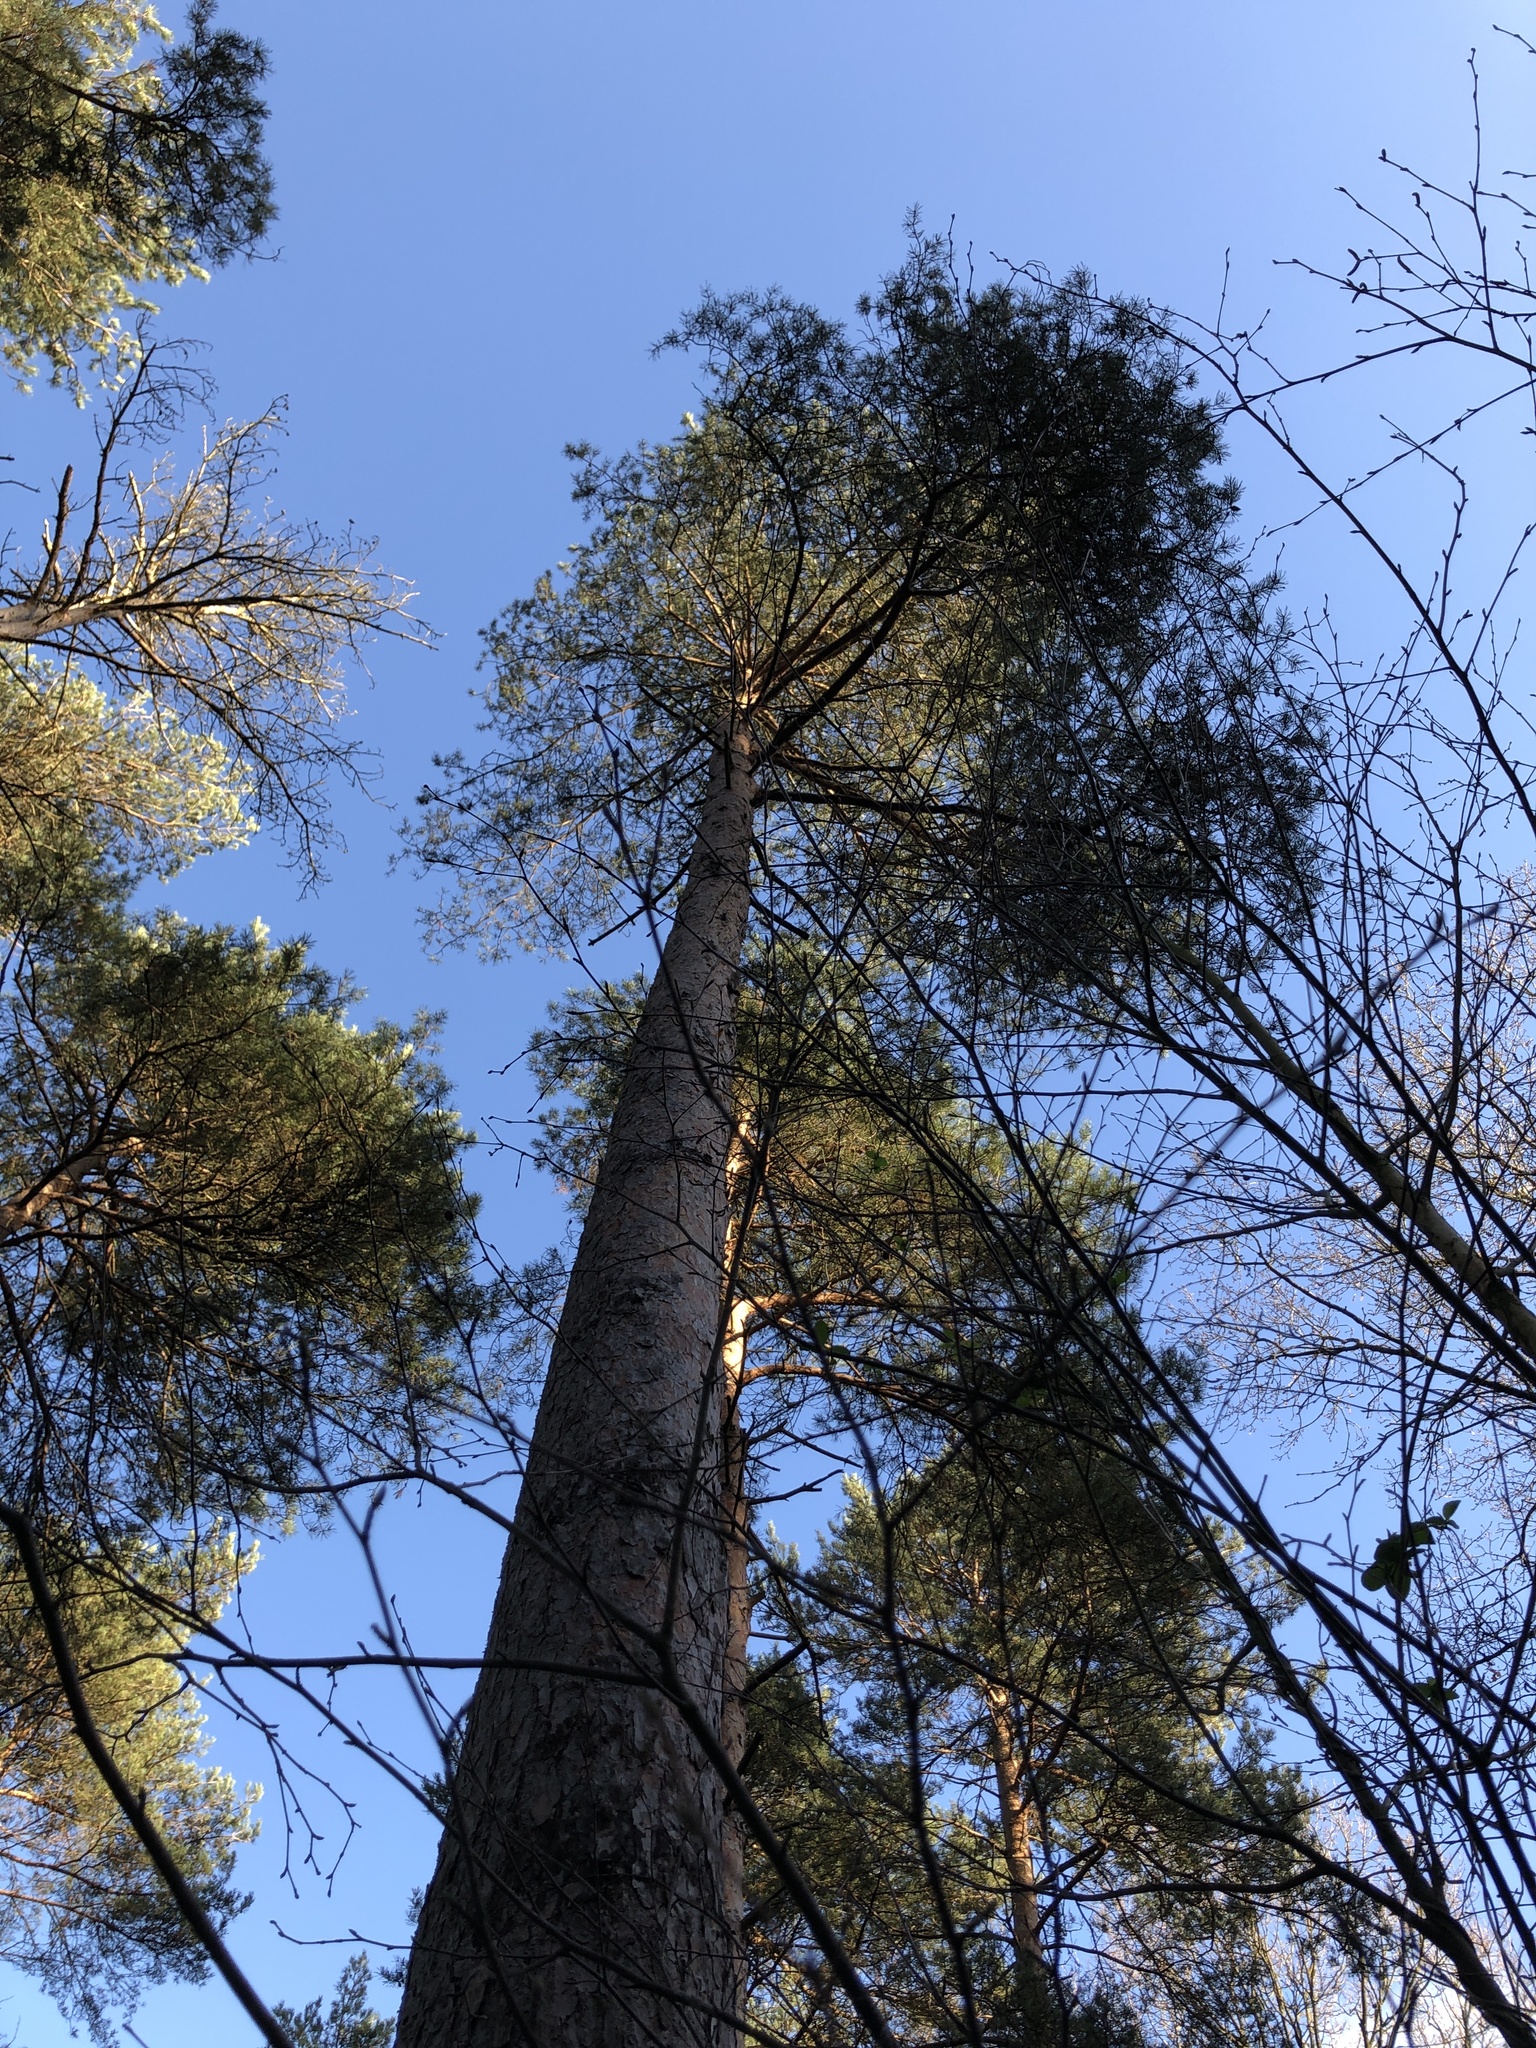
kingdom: Plantae
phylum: Bryophyta
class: Bryopsida
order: Hypnales
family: Hypnaceae
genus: Hypnum
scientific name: Hypnum jutlandicum
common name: Heath plait-moss
